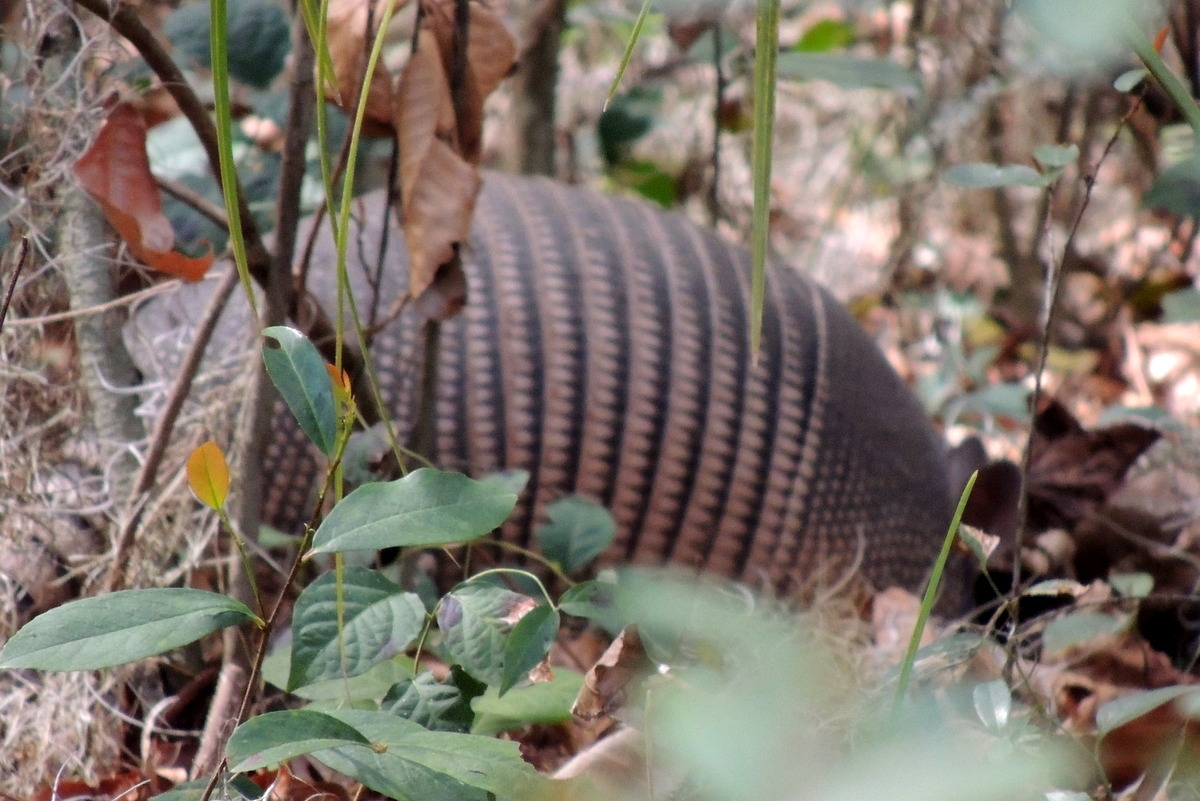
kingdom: Animalia
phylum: Chordata
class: Mammalia
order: Cingulata
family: Dasypodidae
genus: Dasypus
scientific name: Dasypus novemcinctus
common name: Nine-banded armadillo
